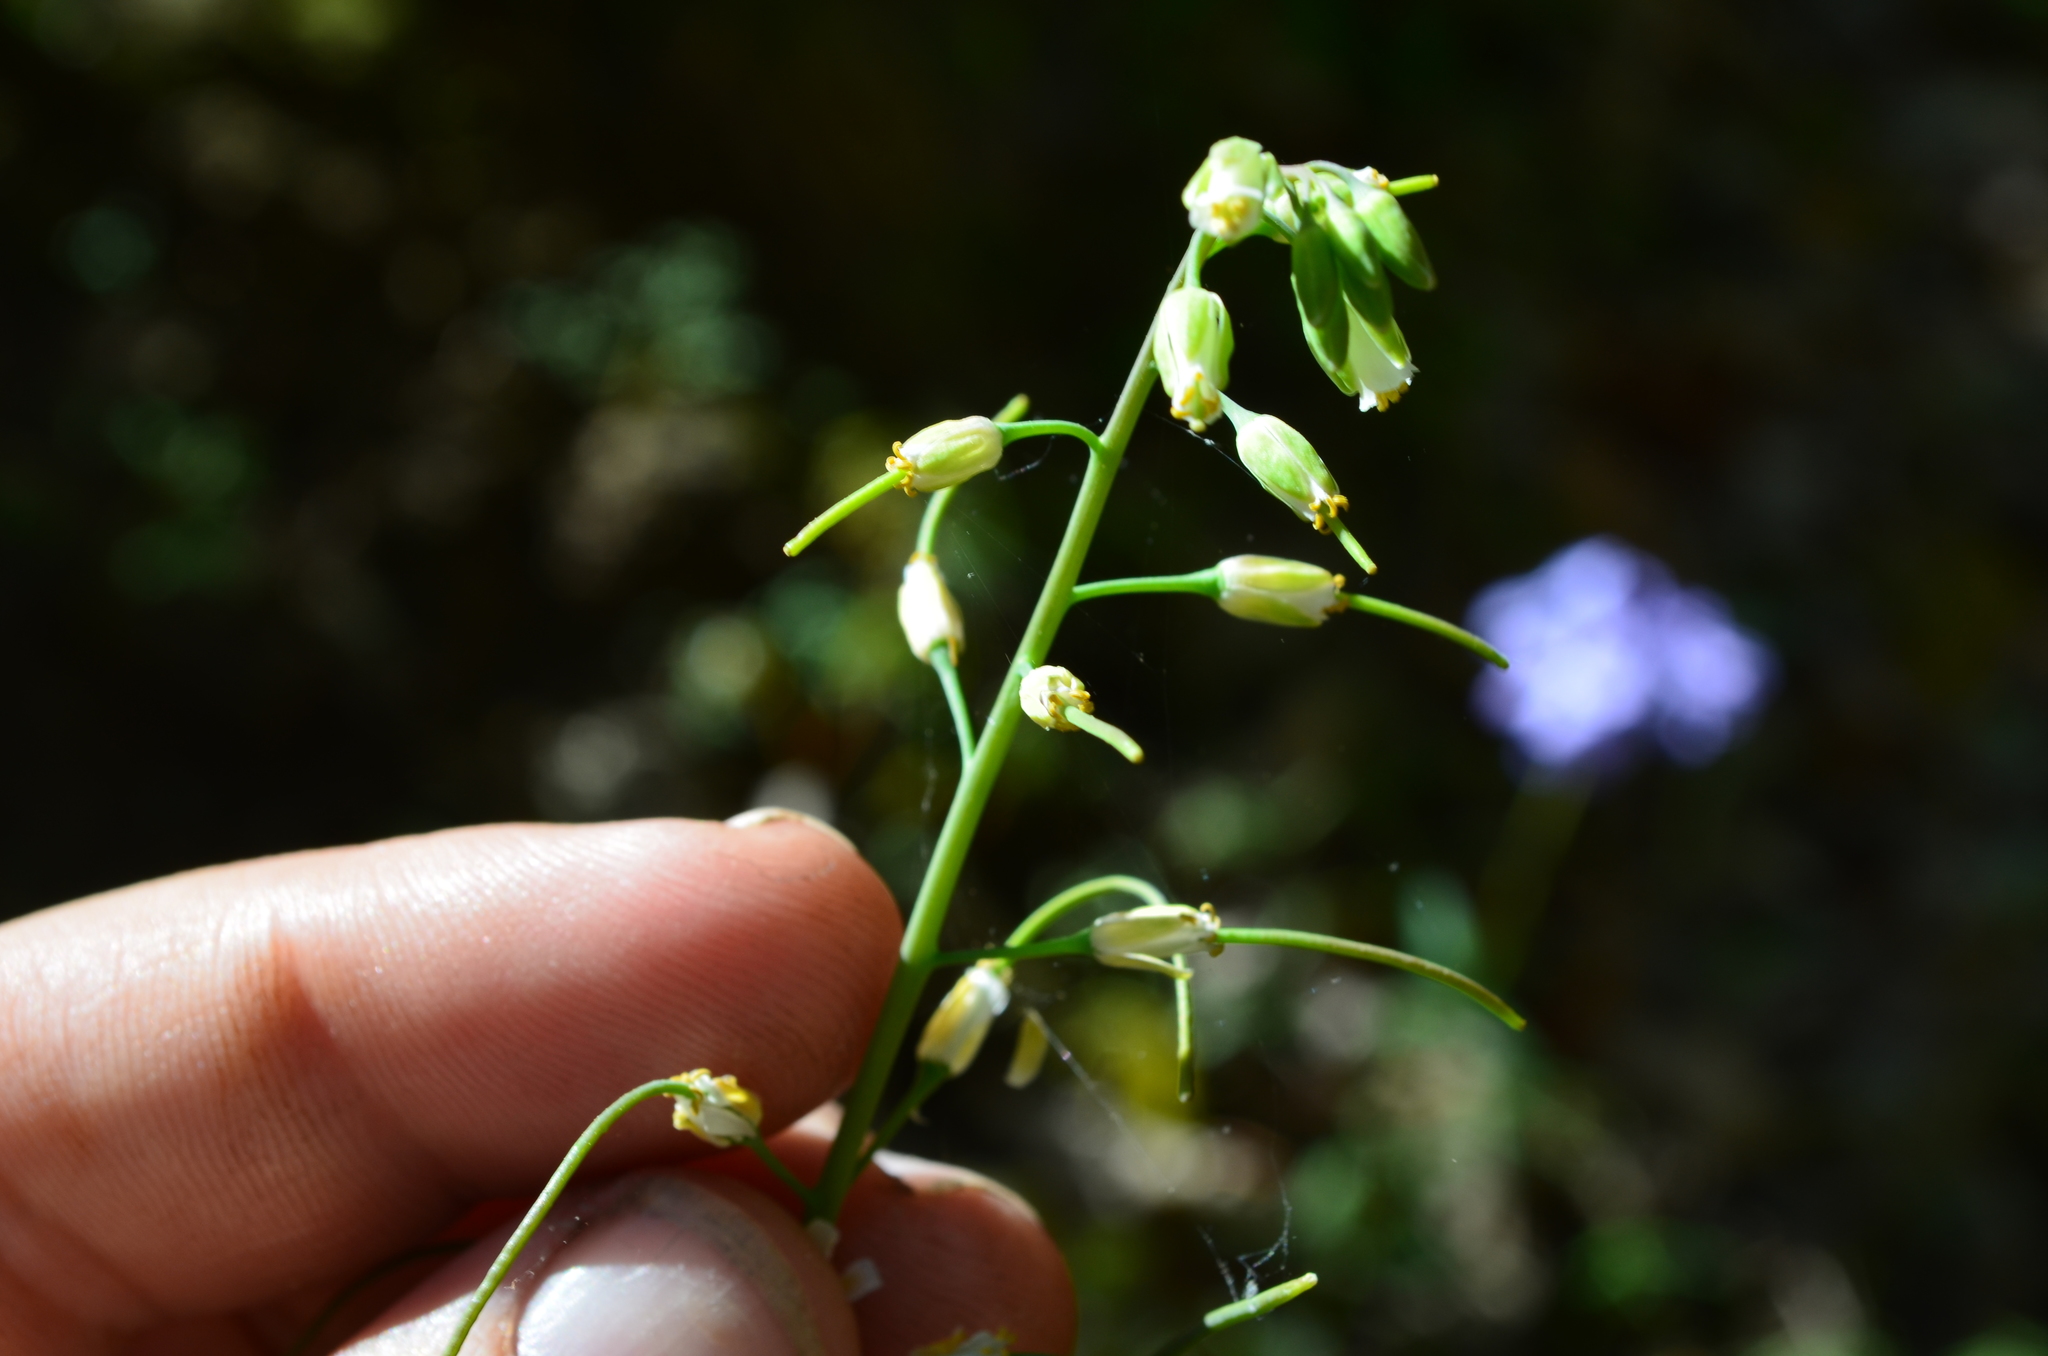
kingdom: Plantae
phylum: Tracheophyta
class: Magnoliopsida
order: Brassicales
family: Brassicaceae
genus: Borodinia
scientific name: Borodinia laevigata
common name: Smooth rockcress
